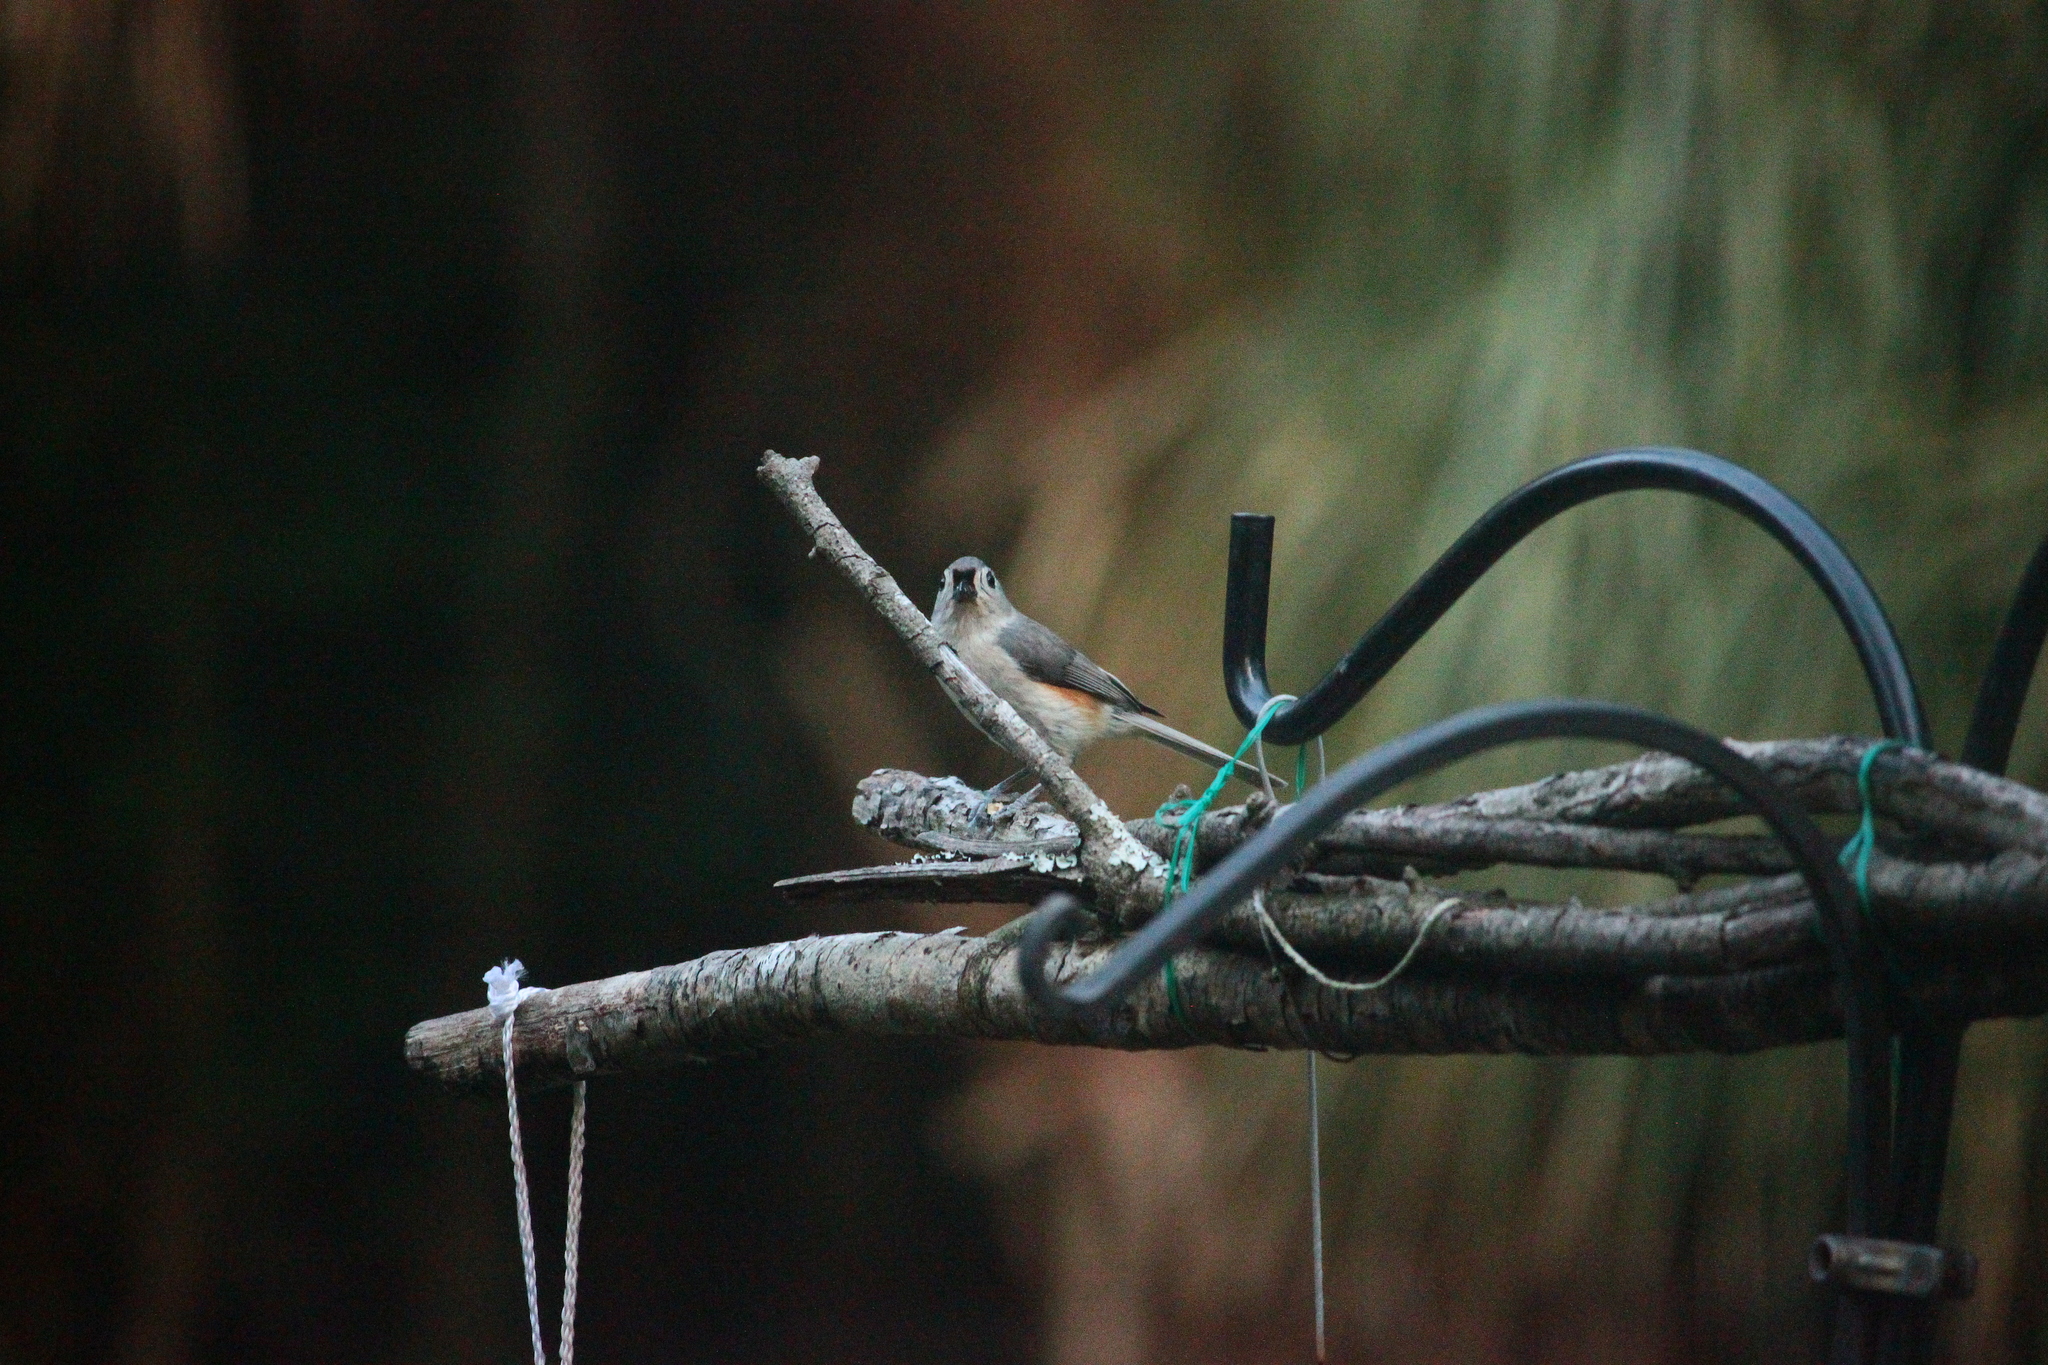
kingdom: Animalia
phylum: Chordata
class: Aves
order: Passeriformes
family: Paridae
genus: Baeolophus
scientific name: Baeolophus bicolor
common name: Tufted titmouse
